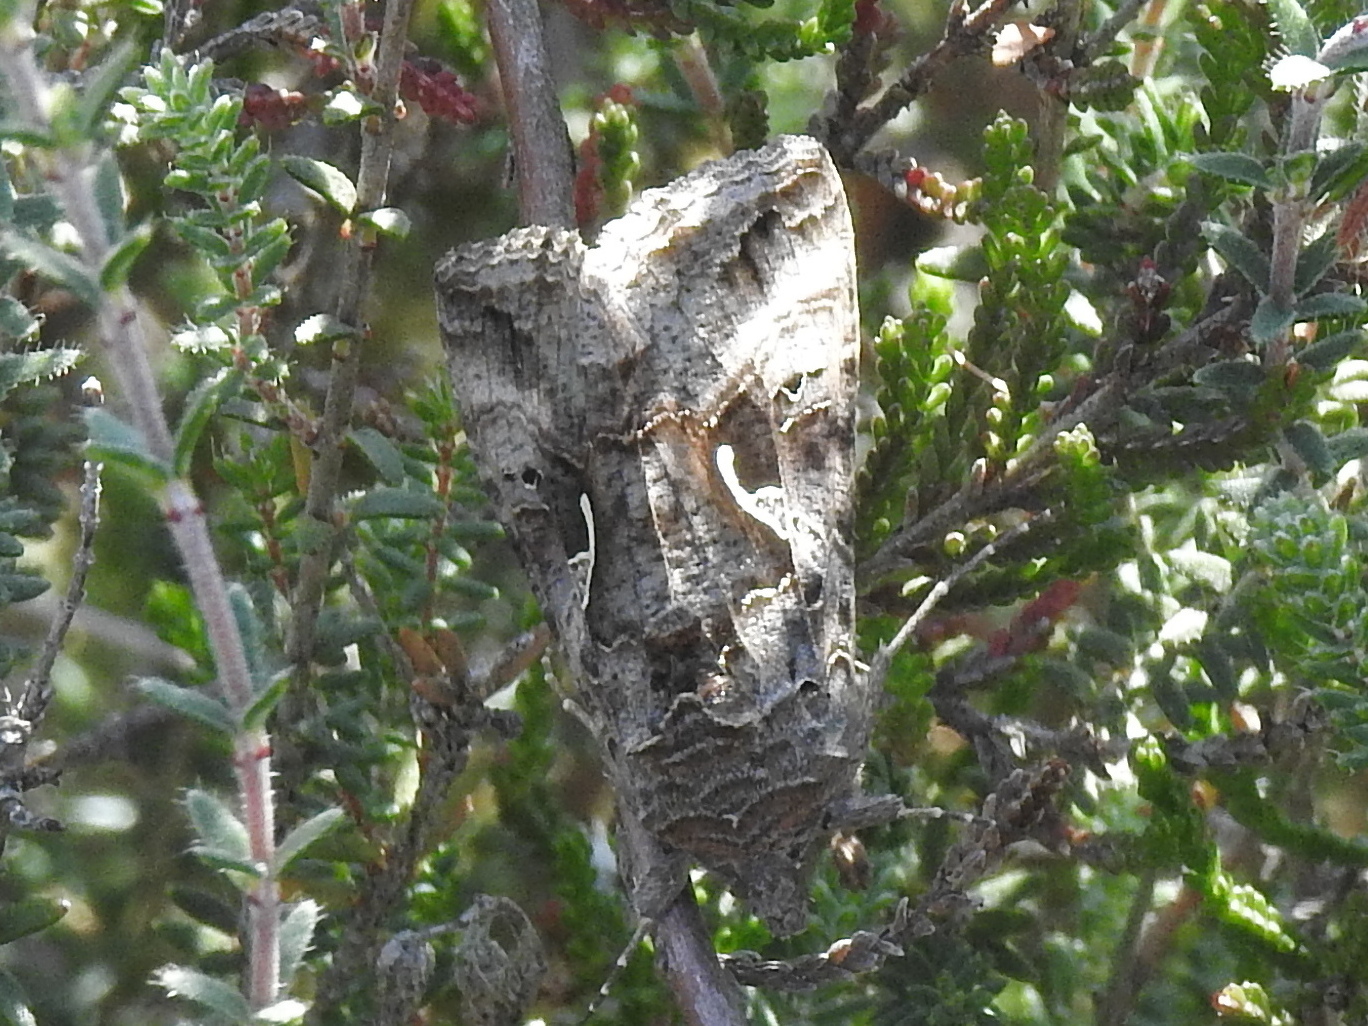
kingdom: Animalia
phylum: Arthropoda
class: Insecta
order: Lepidoptera
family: Noctuidae
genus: Autographa
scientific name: Autographa gamma
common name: Silver y
